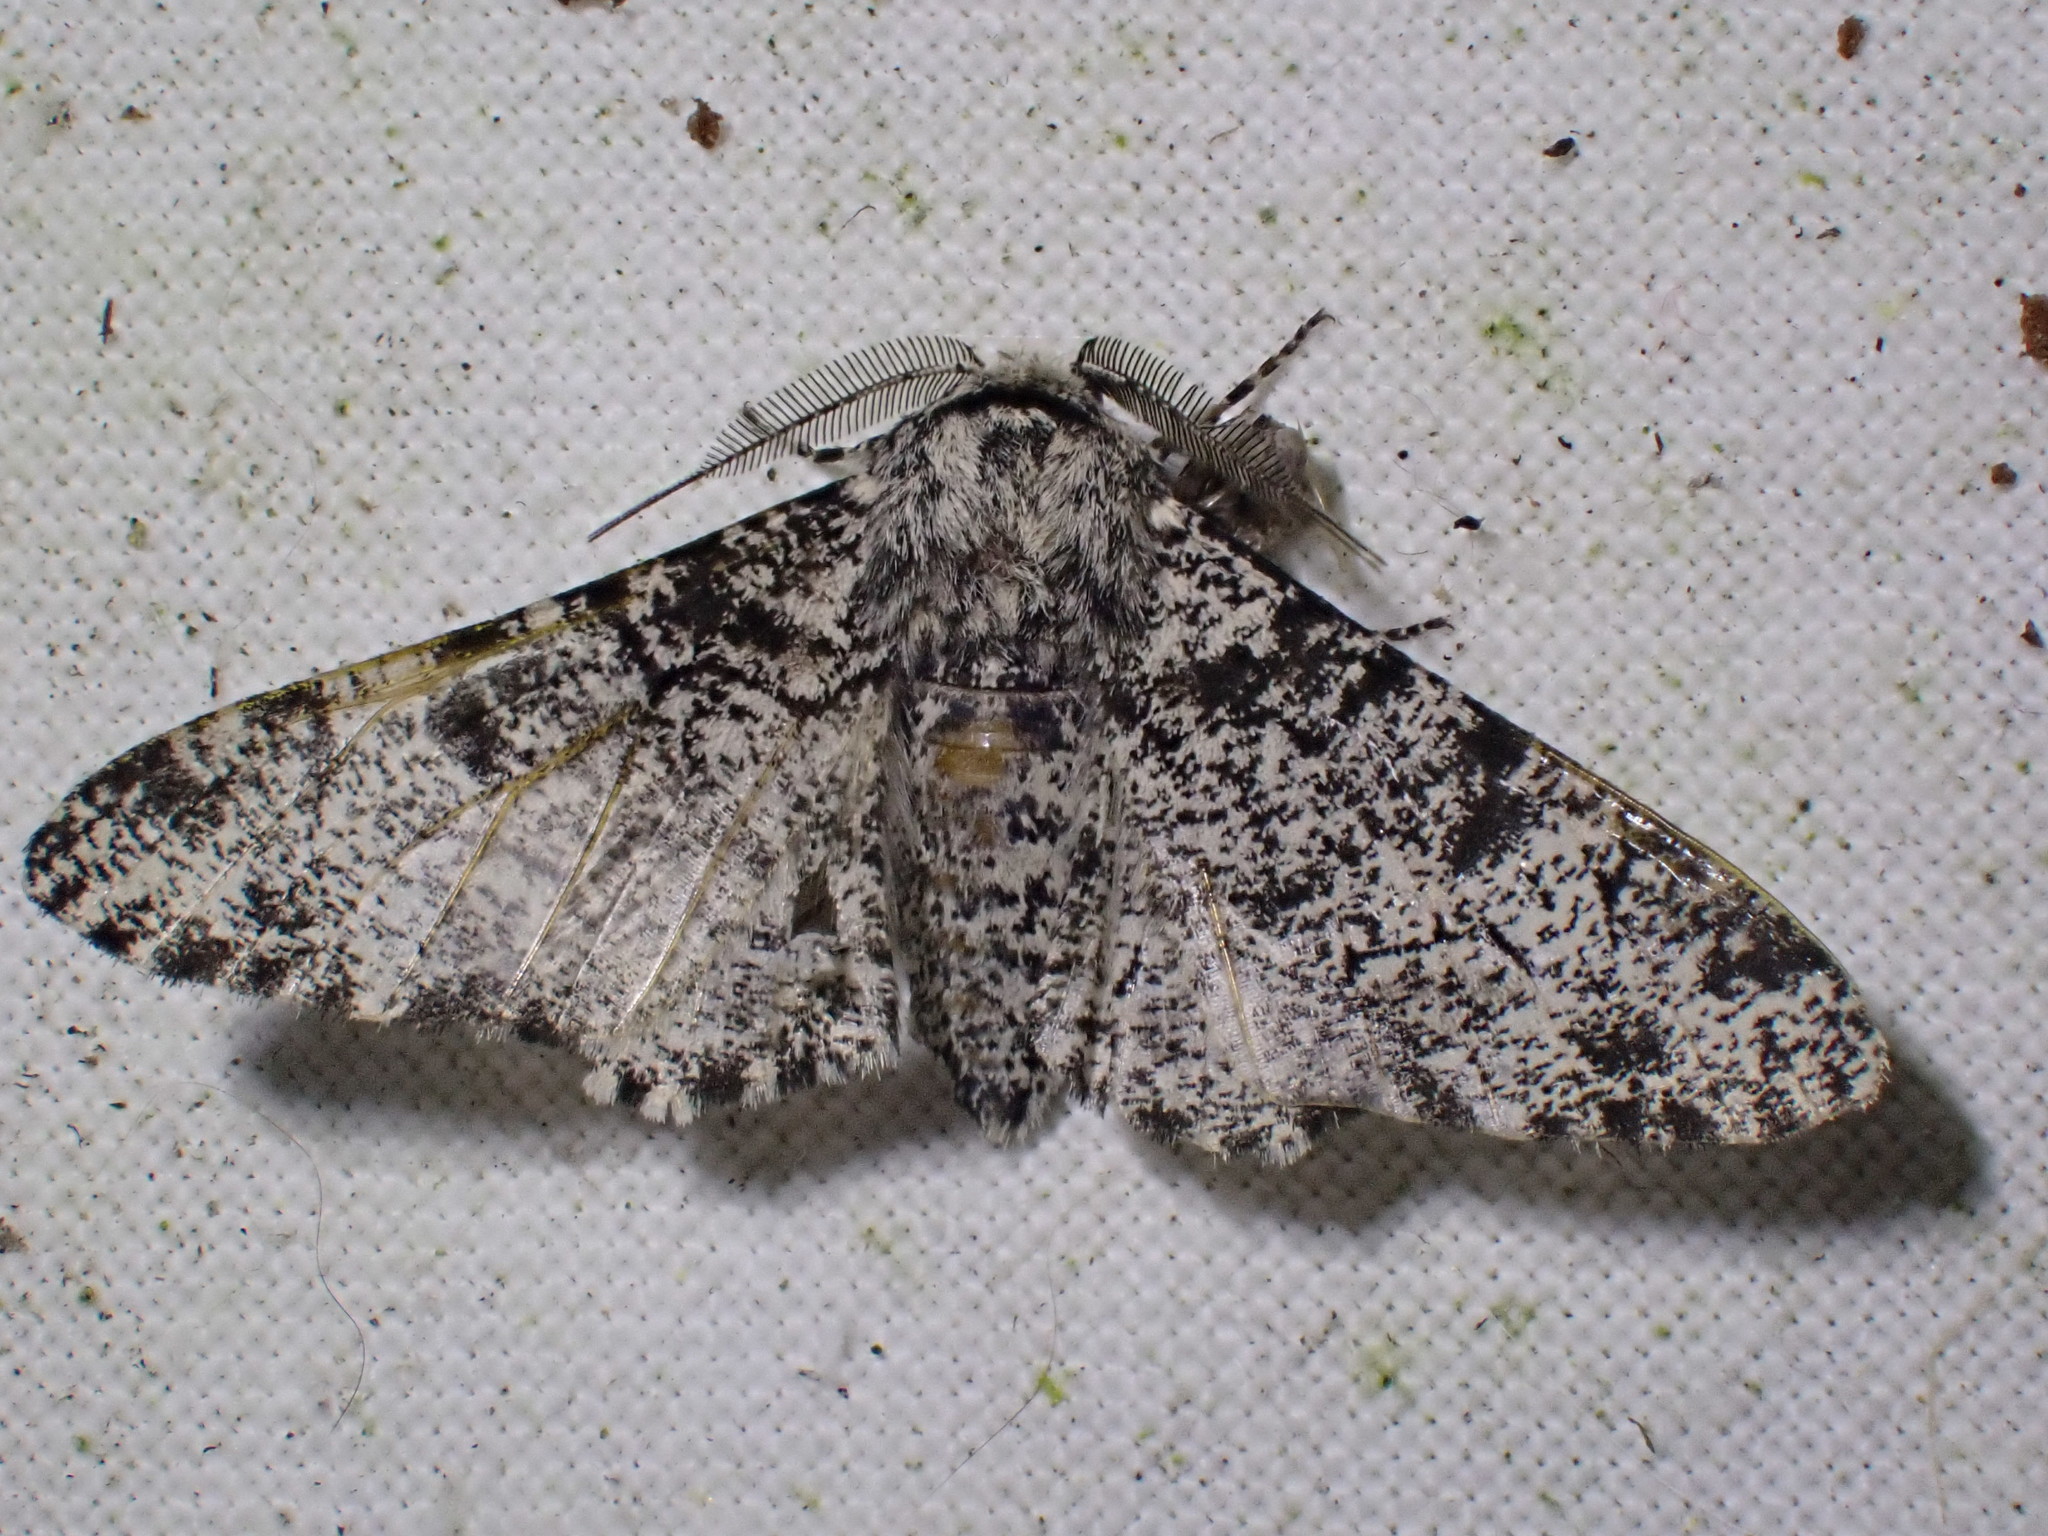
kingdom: Animalia
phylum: Arthropoda
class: Insecta
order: Lepidoptera
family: Geometridae
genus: Biston
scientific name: Biston betularia
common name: Peppered moth
